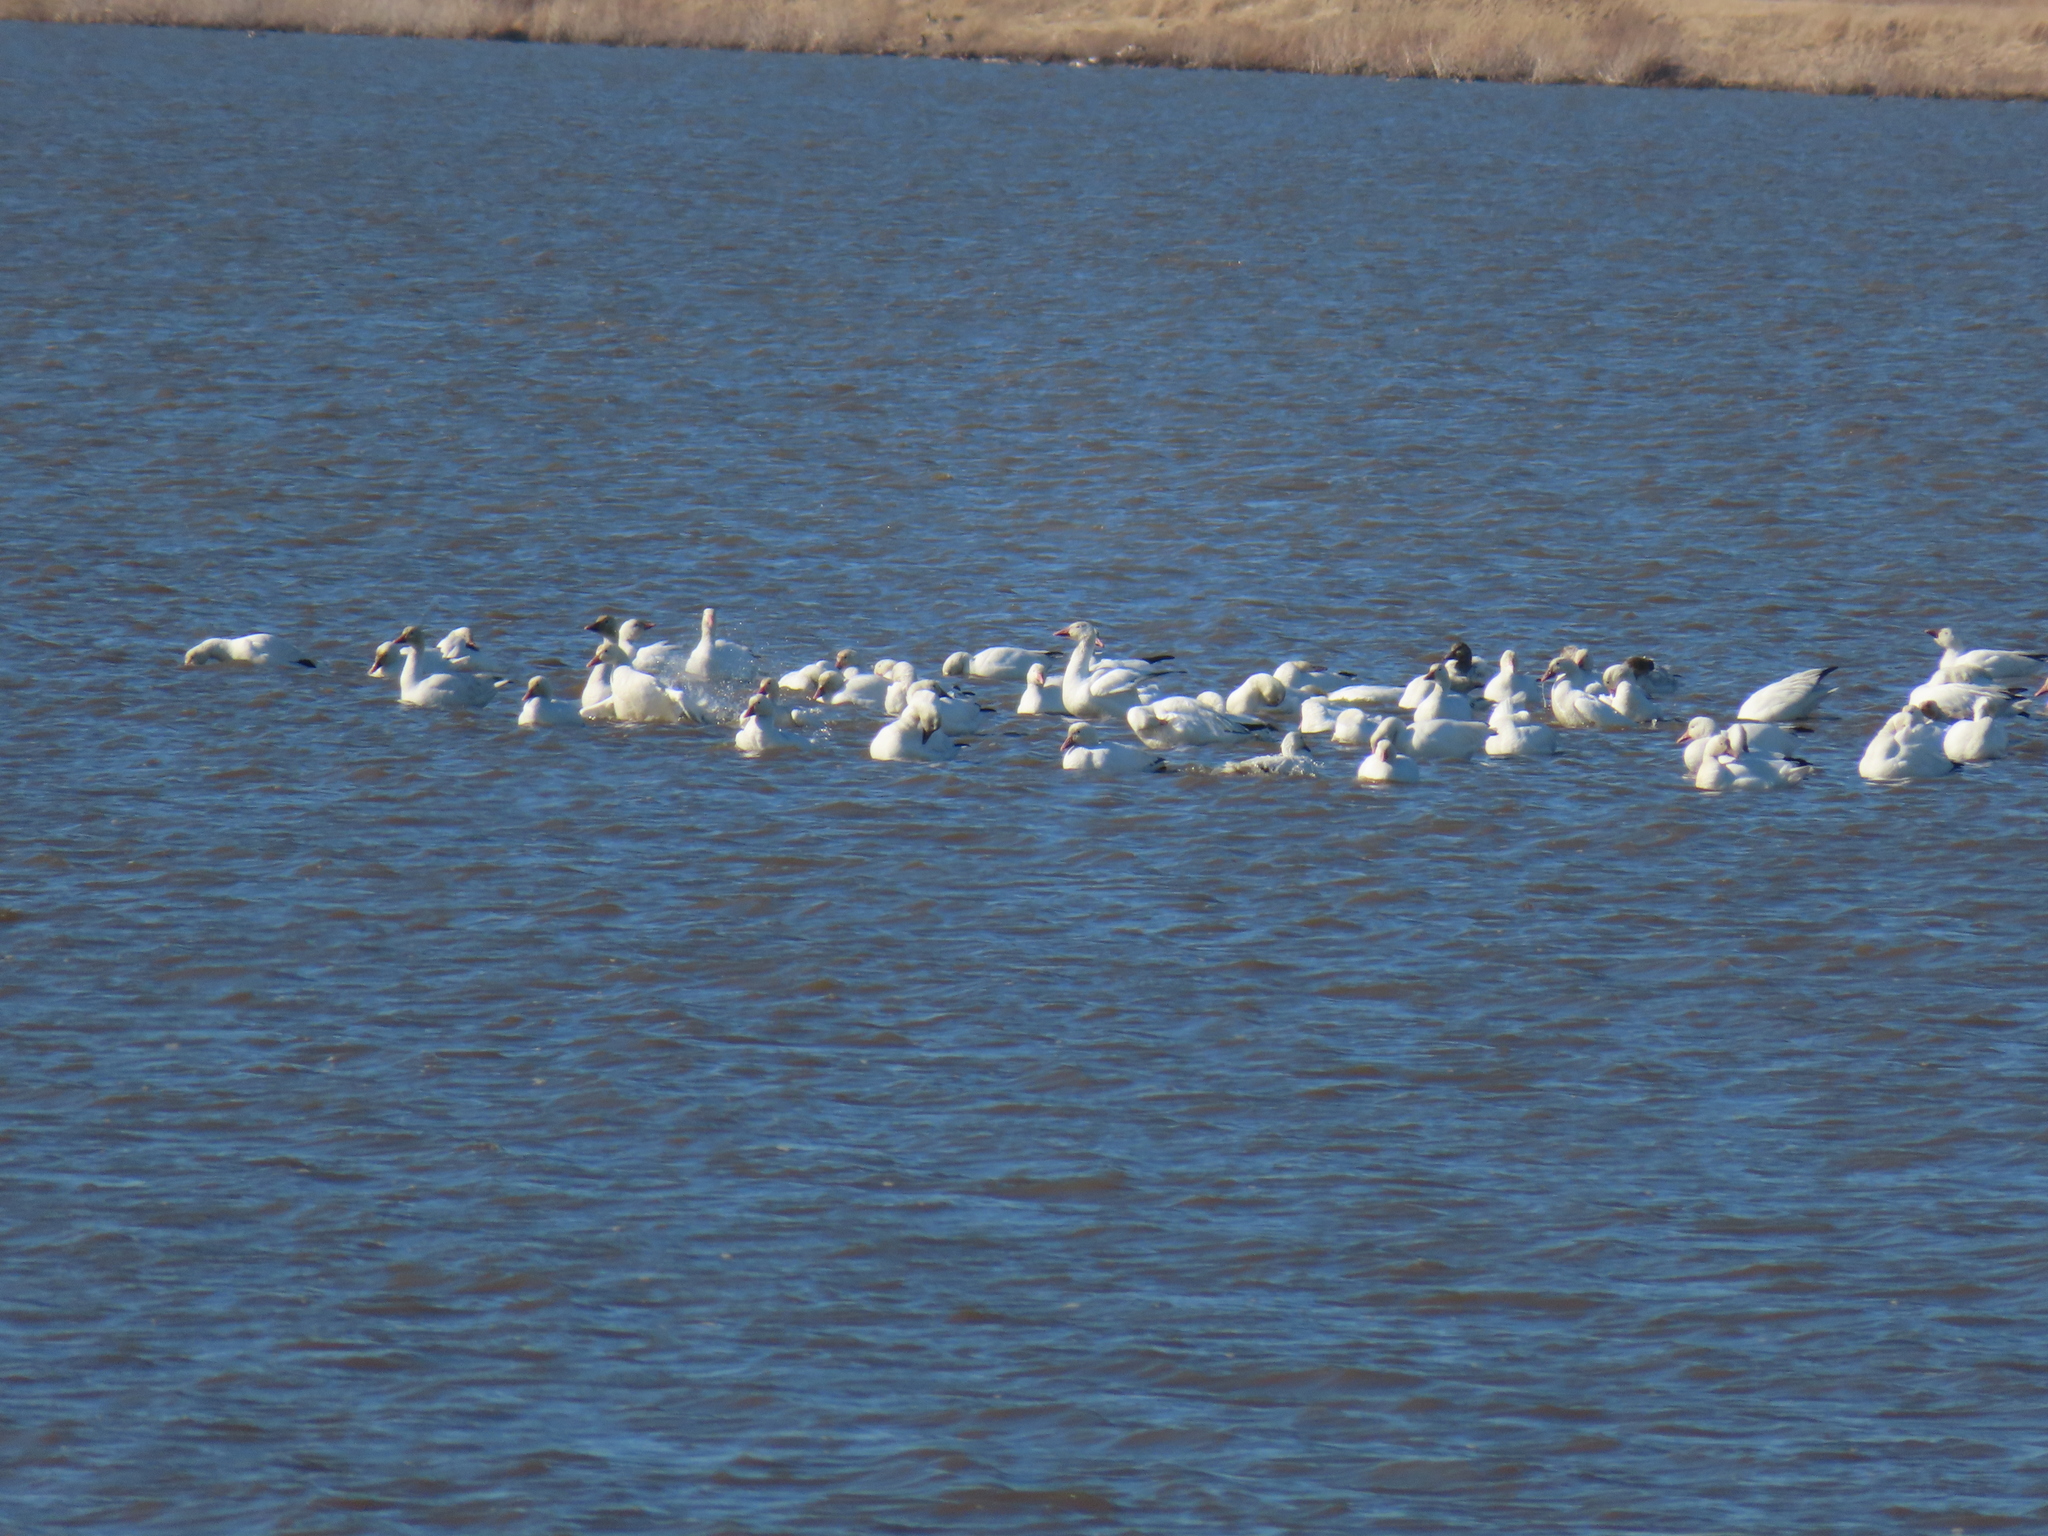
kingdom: Animalia
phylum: Chordata
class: Aves
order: Anseriformes
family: Anatidae
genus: Anser
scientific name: Anser caerulescens
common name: Snow goose
